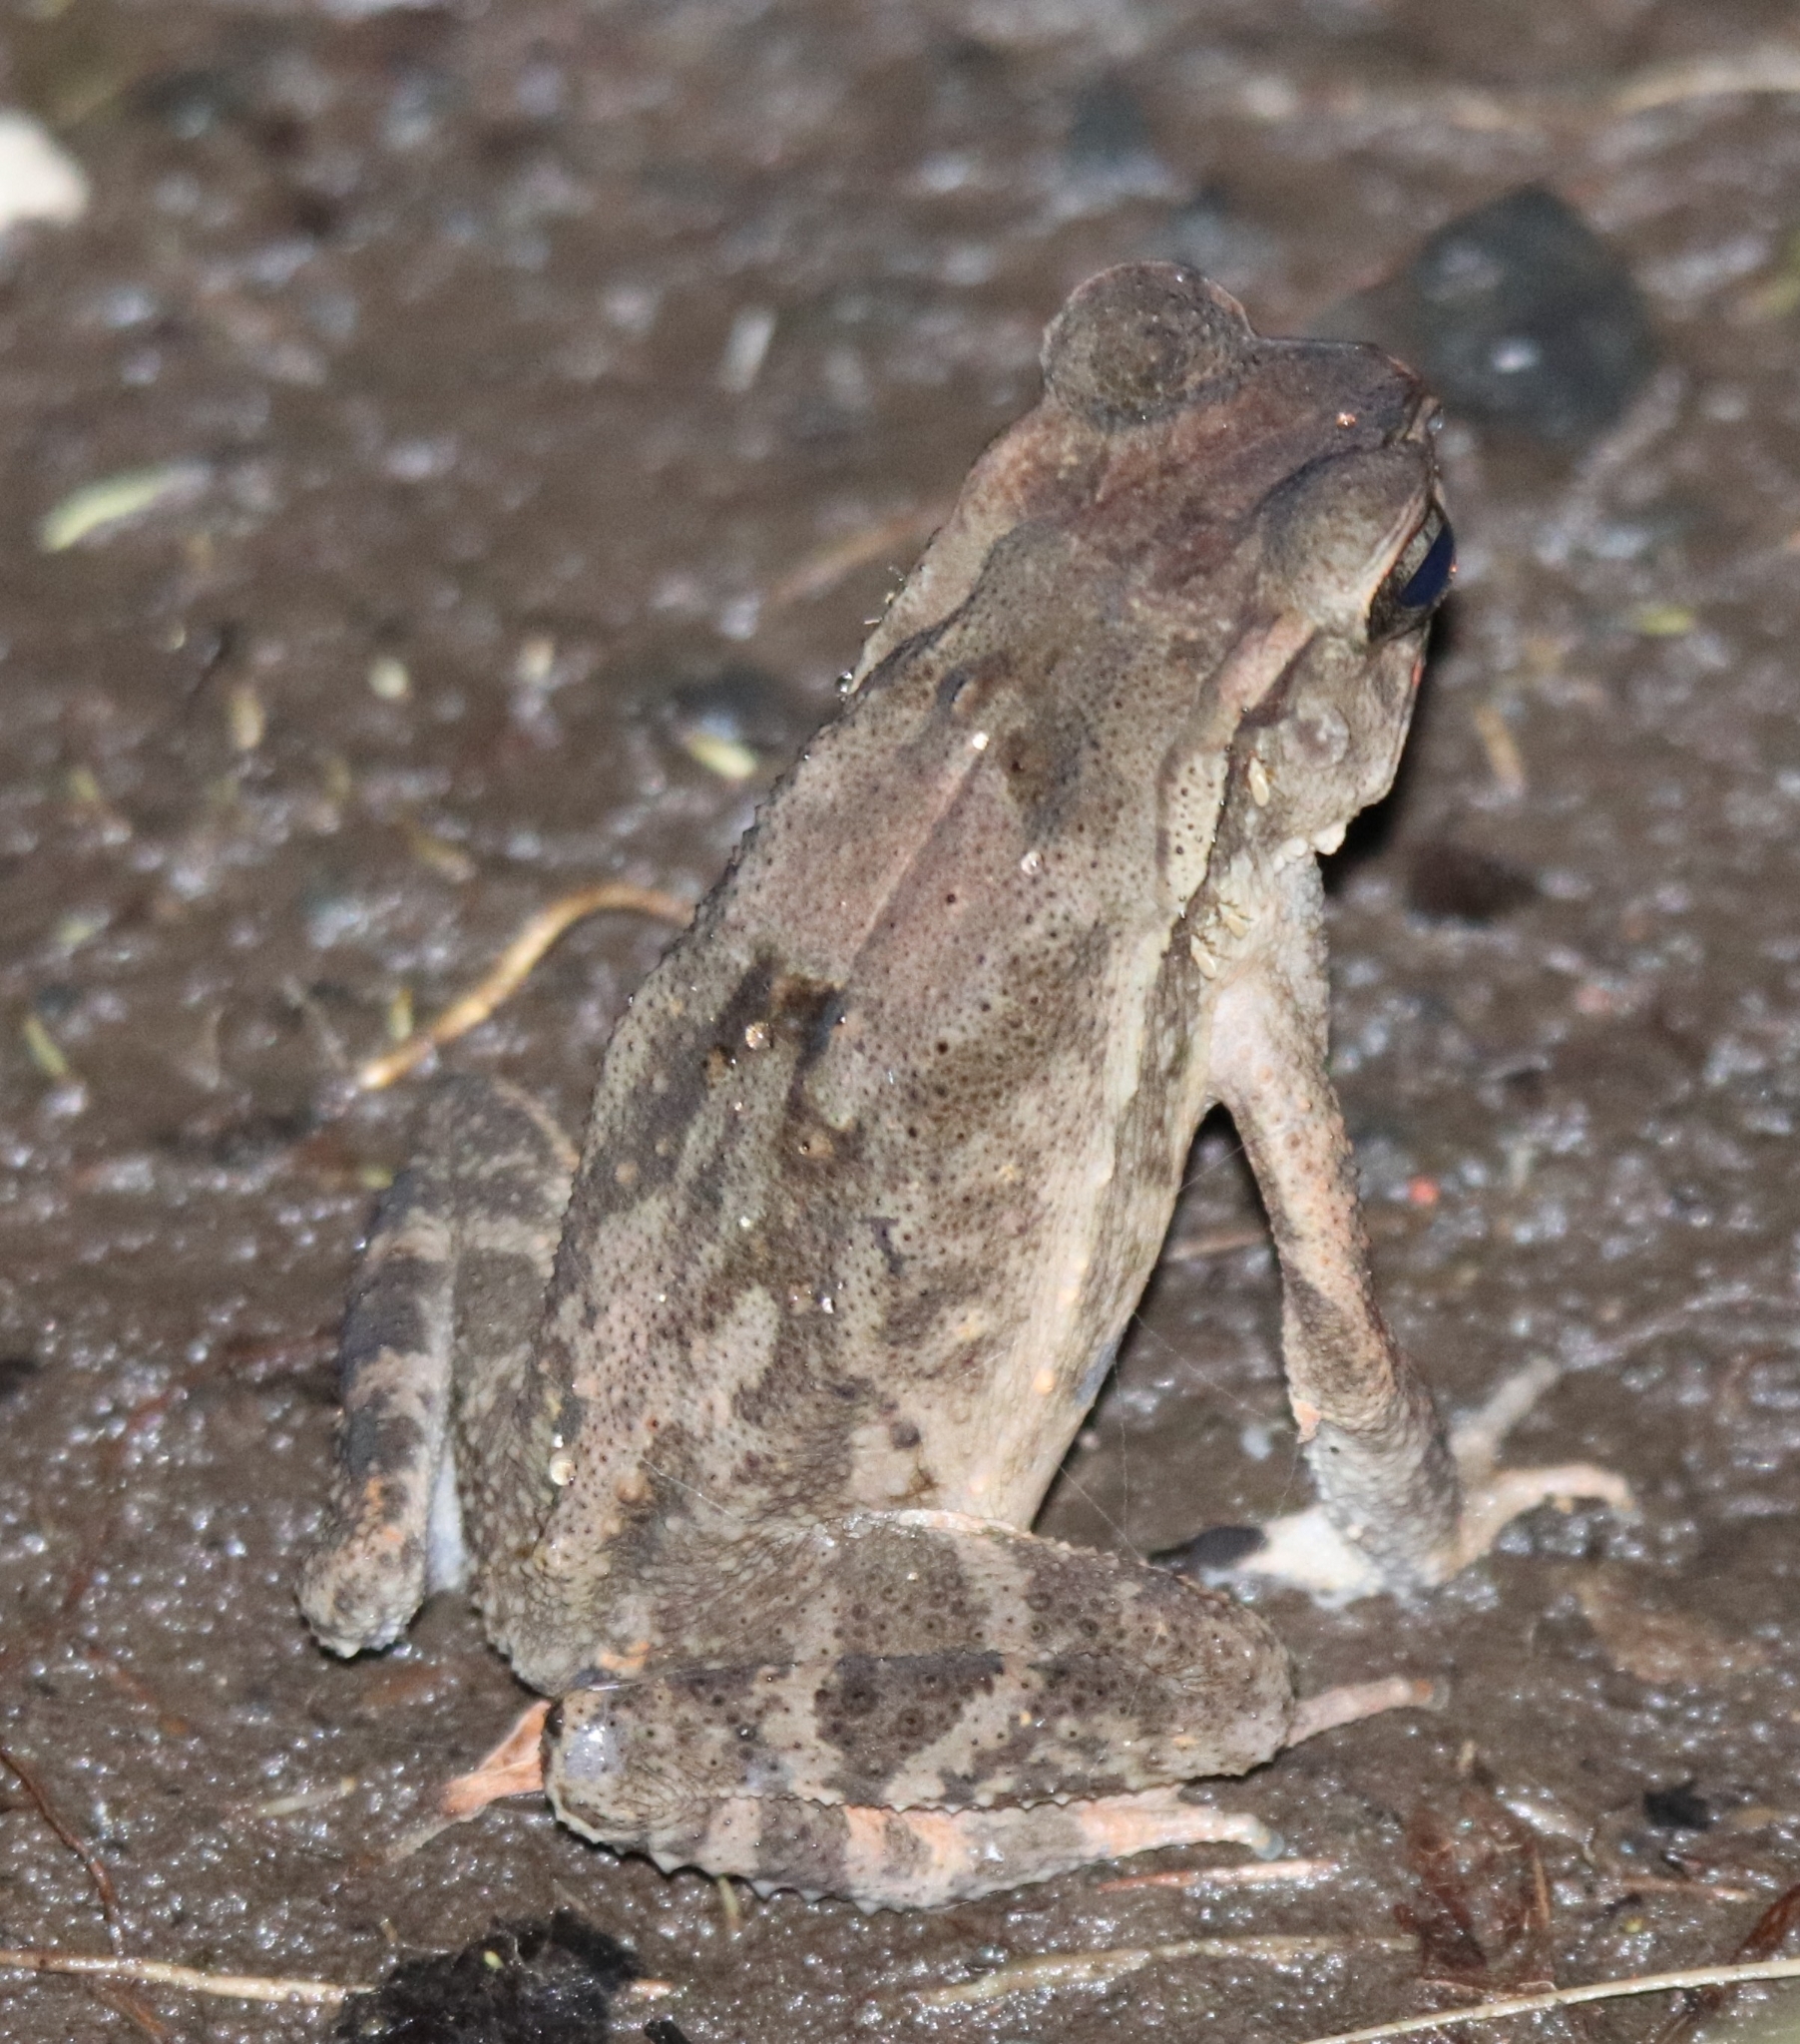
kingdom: Animalia
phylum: Chordata
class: Amphibia
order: Anura
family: Bufonidae
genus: Ingerophrynus
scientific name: Ingerophrynus celebensis
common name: Celebes toad
